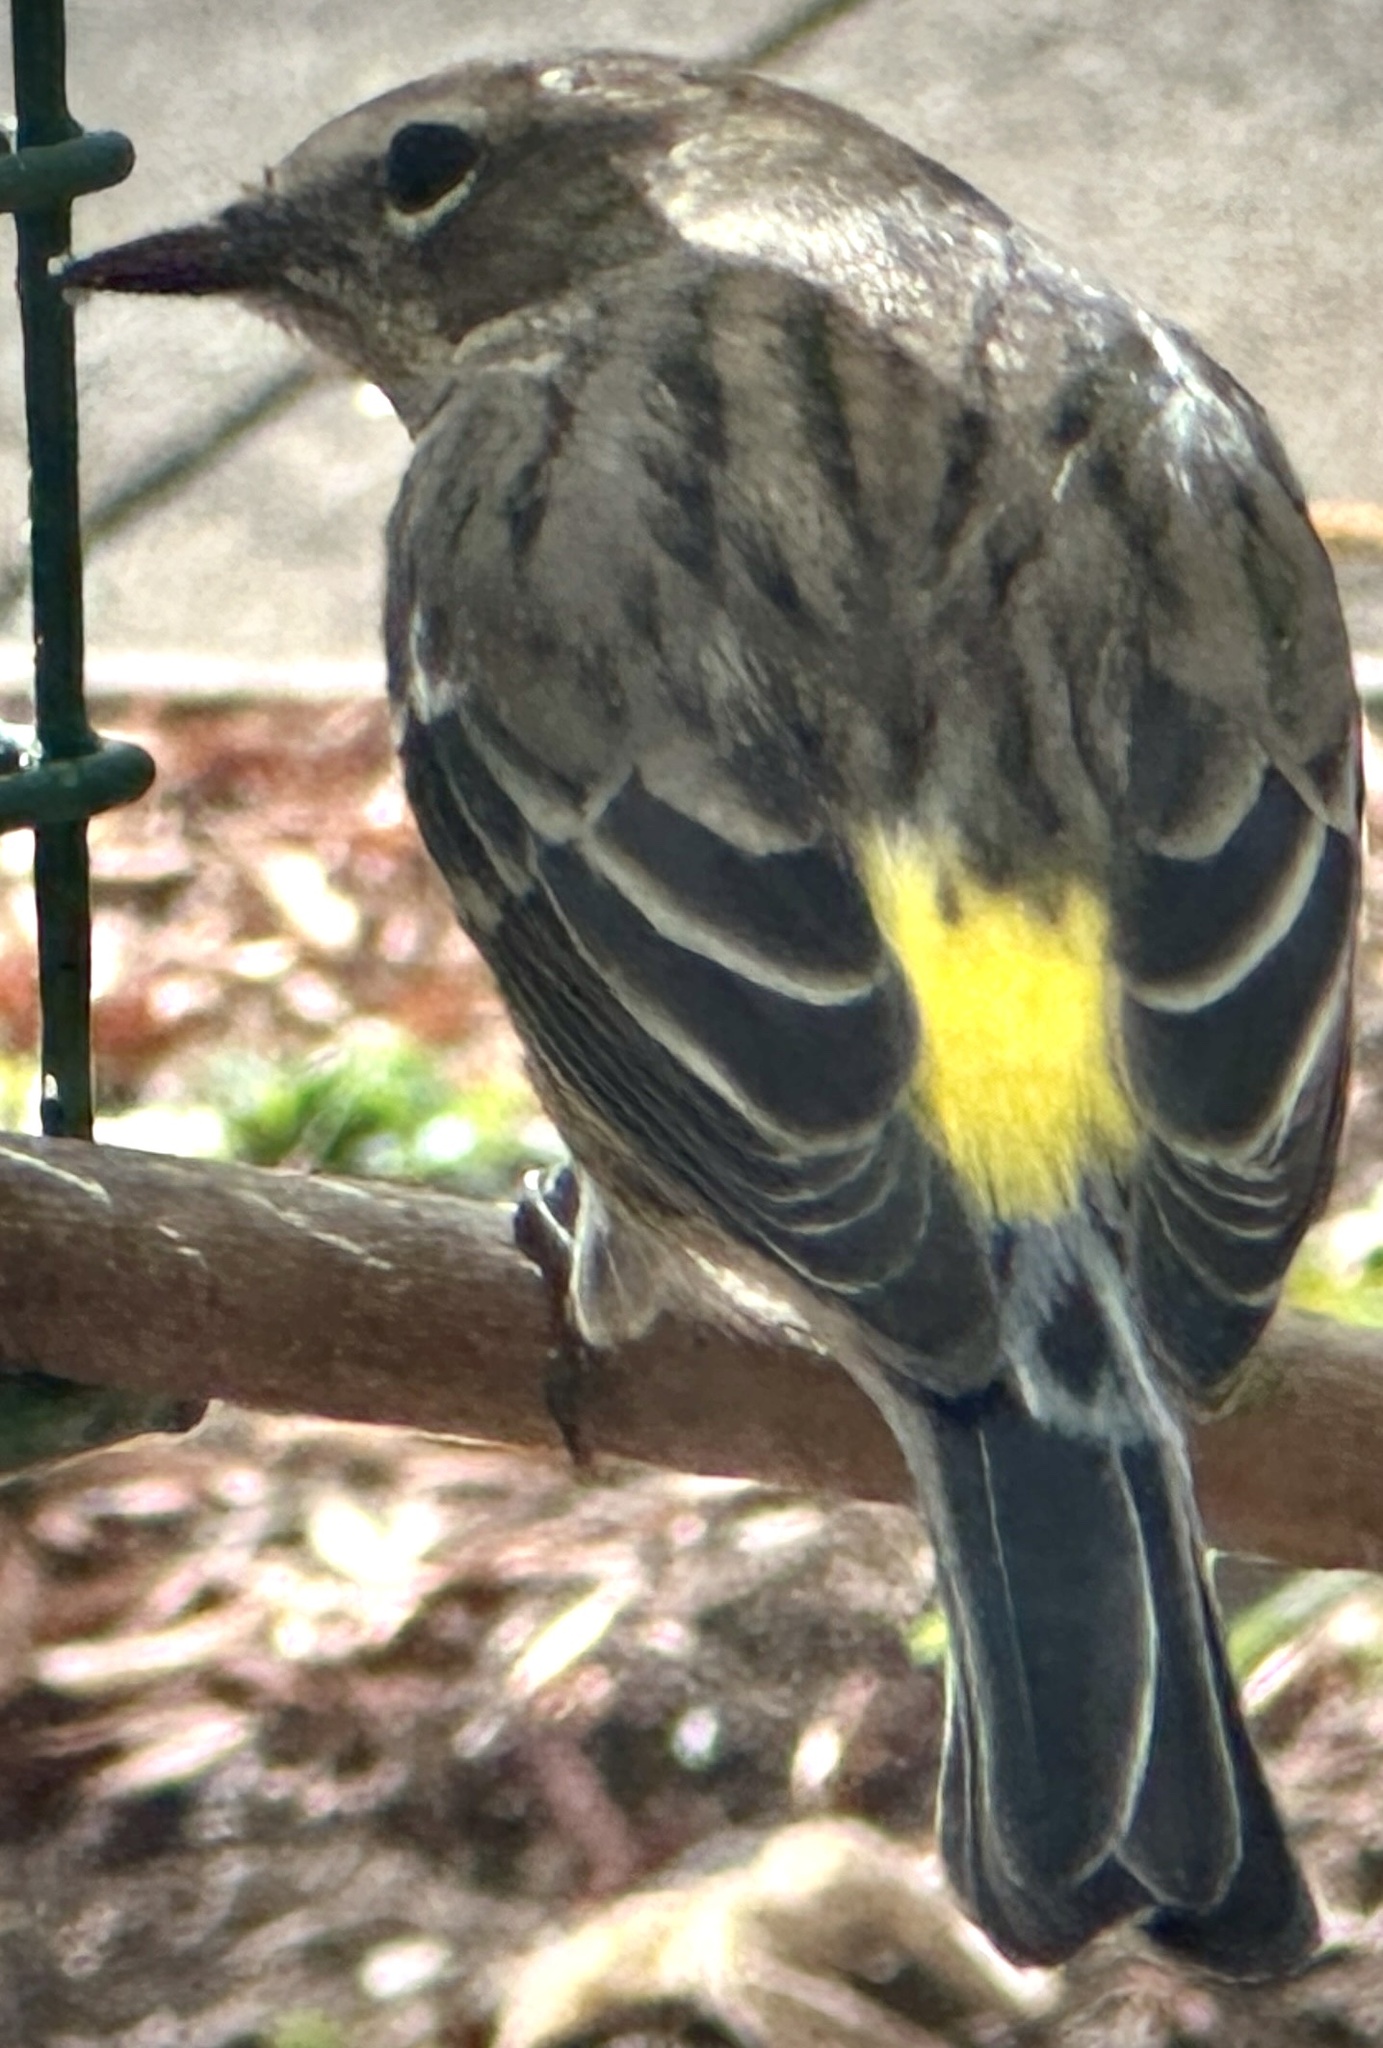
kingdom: Animalia
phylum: Chordata
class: Aves
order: Passeriformes
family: Parulidae
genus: Setophaga
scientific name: Setophaga coronata
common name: Myrtle warbler
